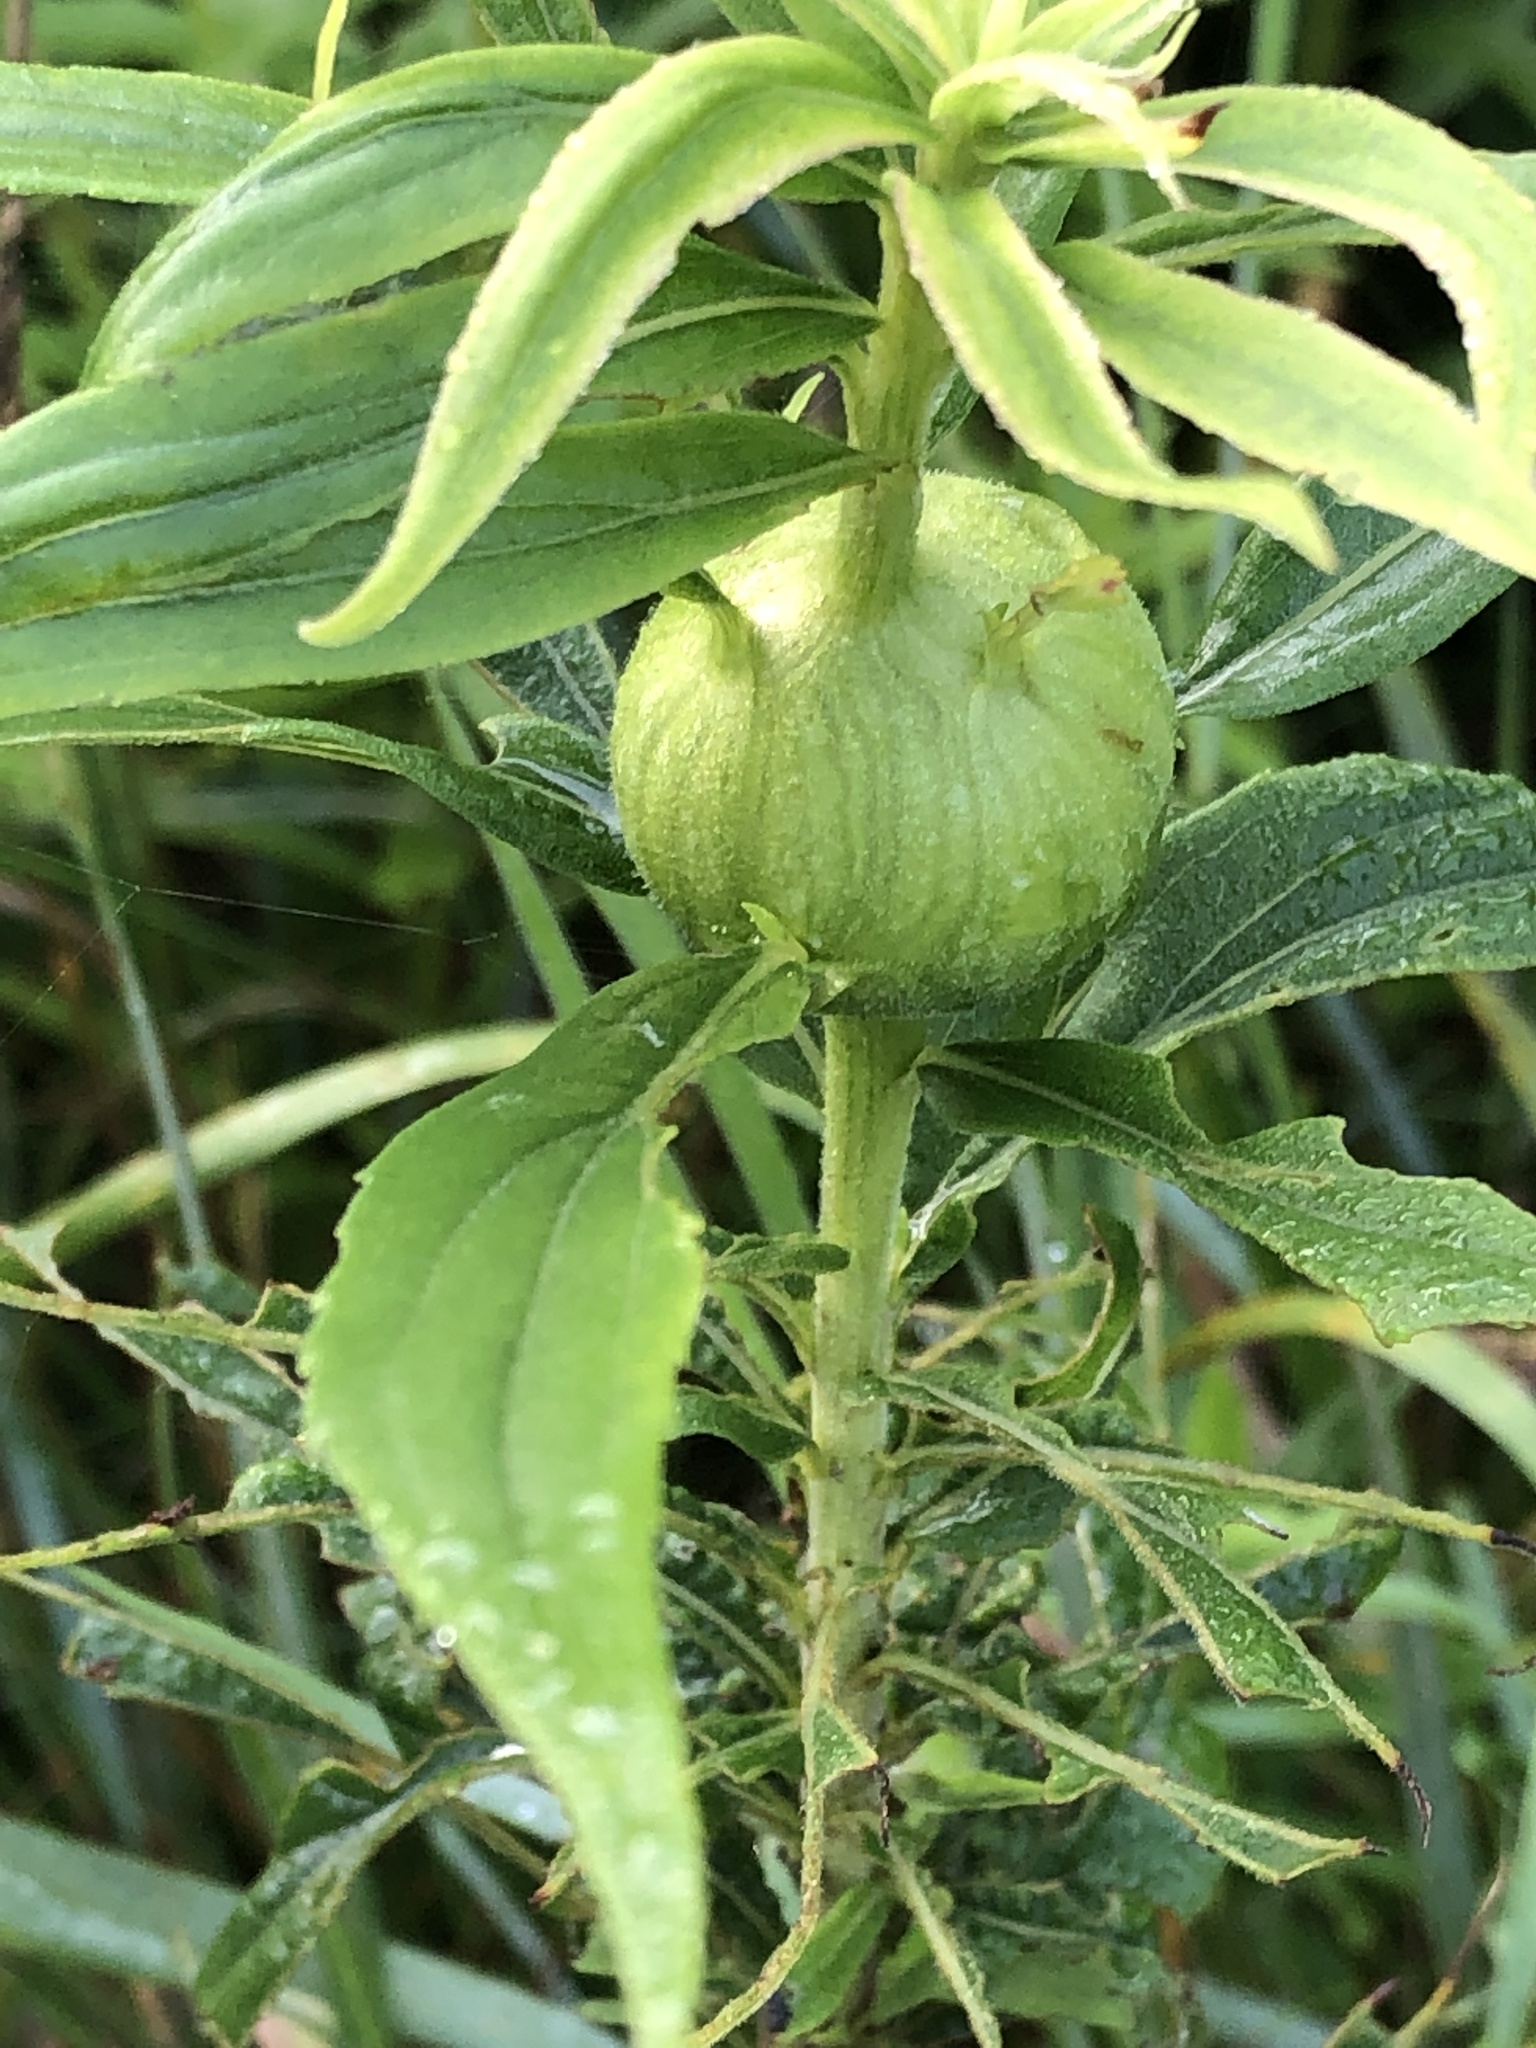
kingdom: Animalia
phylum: Arthropoda
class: Insecta
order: Diptera
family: Tephritidae
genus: Eurosta
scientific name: Eurosta solidaginis
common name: Goldenrod gall fly
